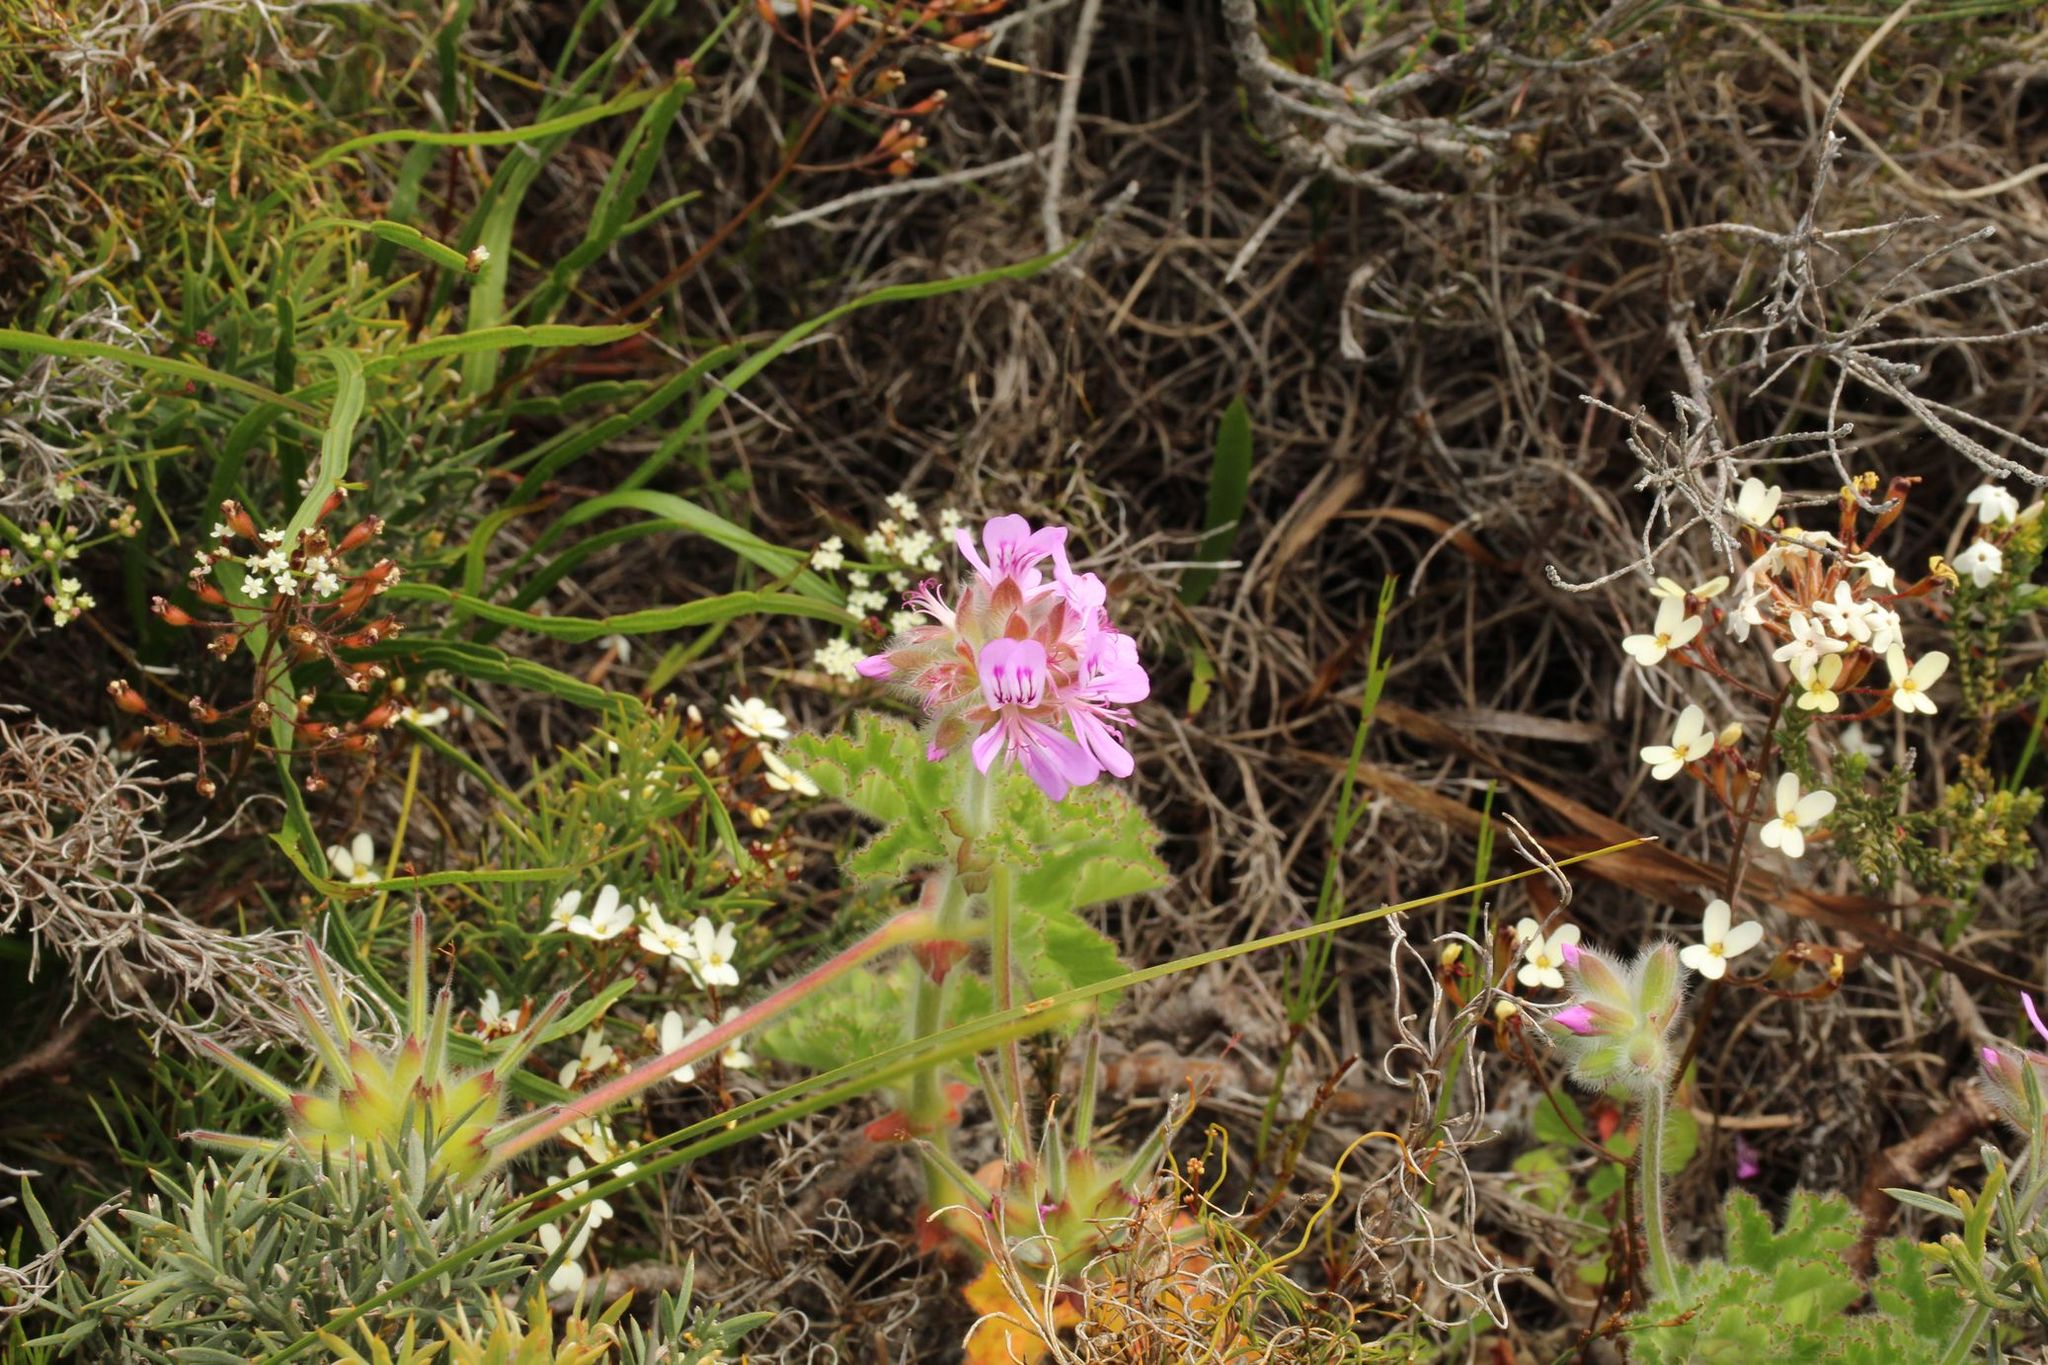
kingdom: Plantae
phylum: Tracheophyta
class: Magnoliopsida
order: Geraniales
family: Geraniaceae
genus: Pelargonium
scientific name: Pelargonium capitatum
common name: Rose scented geranium
